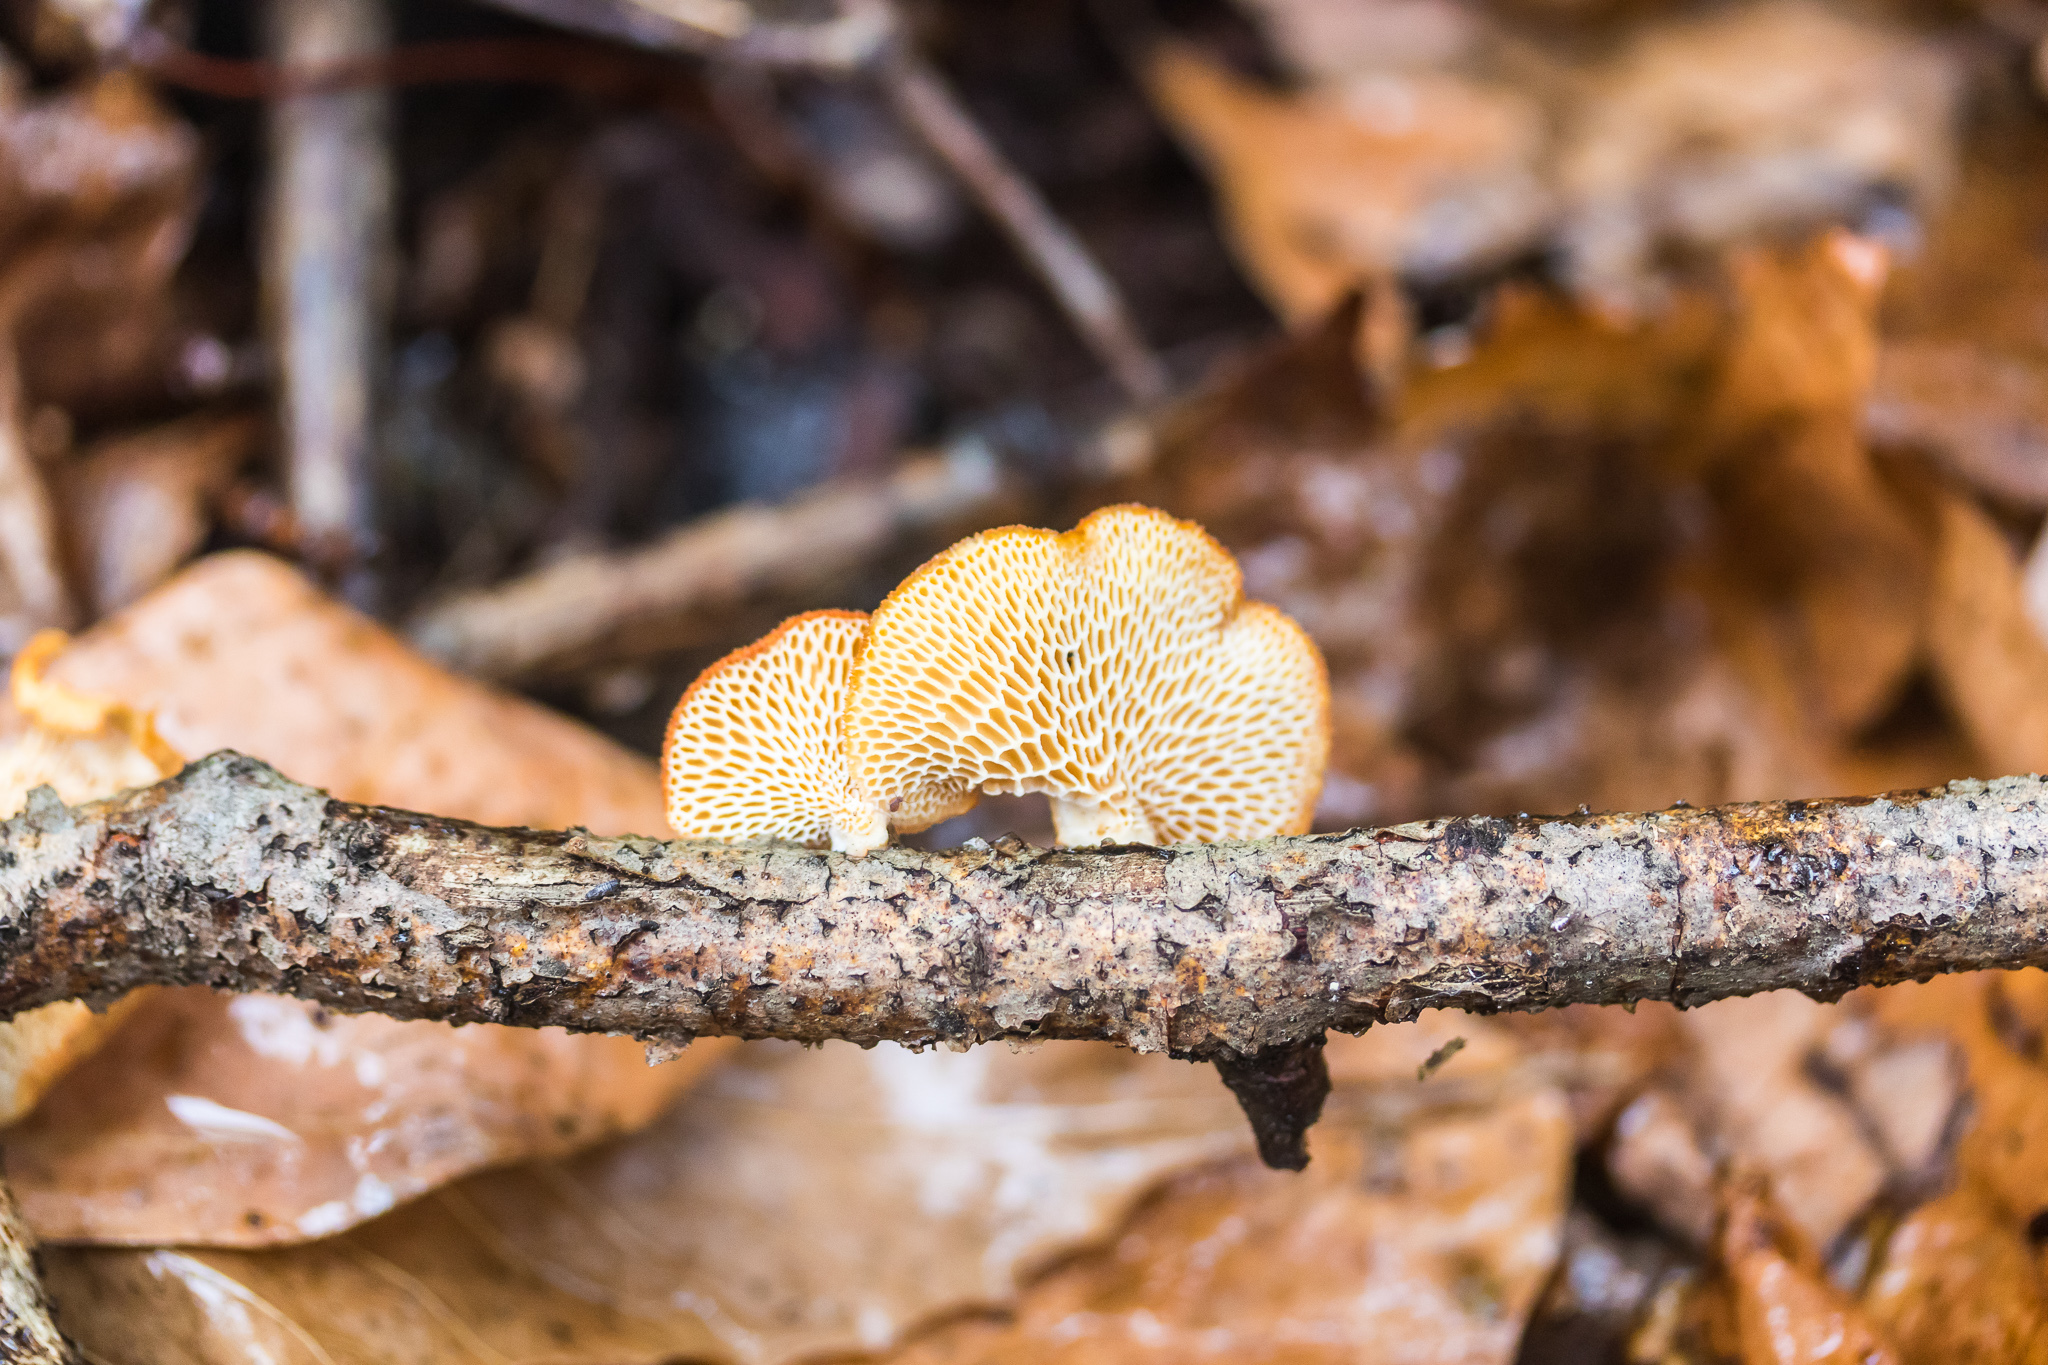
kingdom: Fungi
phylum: Basidiomycota
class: Agaricomycetes
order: Polyporales
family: Polyporaceae
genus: Neofavolus
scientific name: Neofavolus alveolaris
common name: Hexagonal-pored polypore
